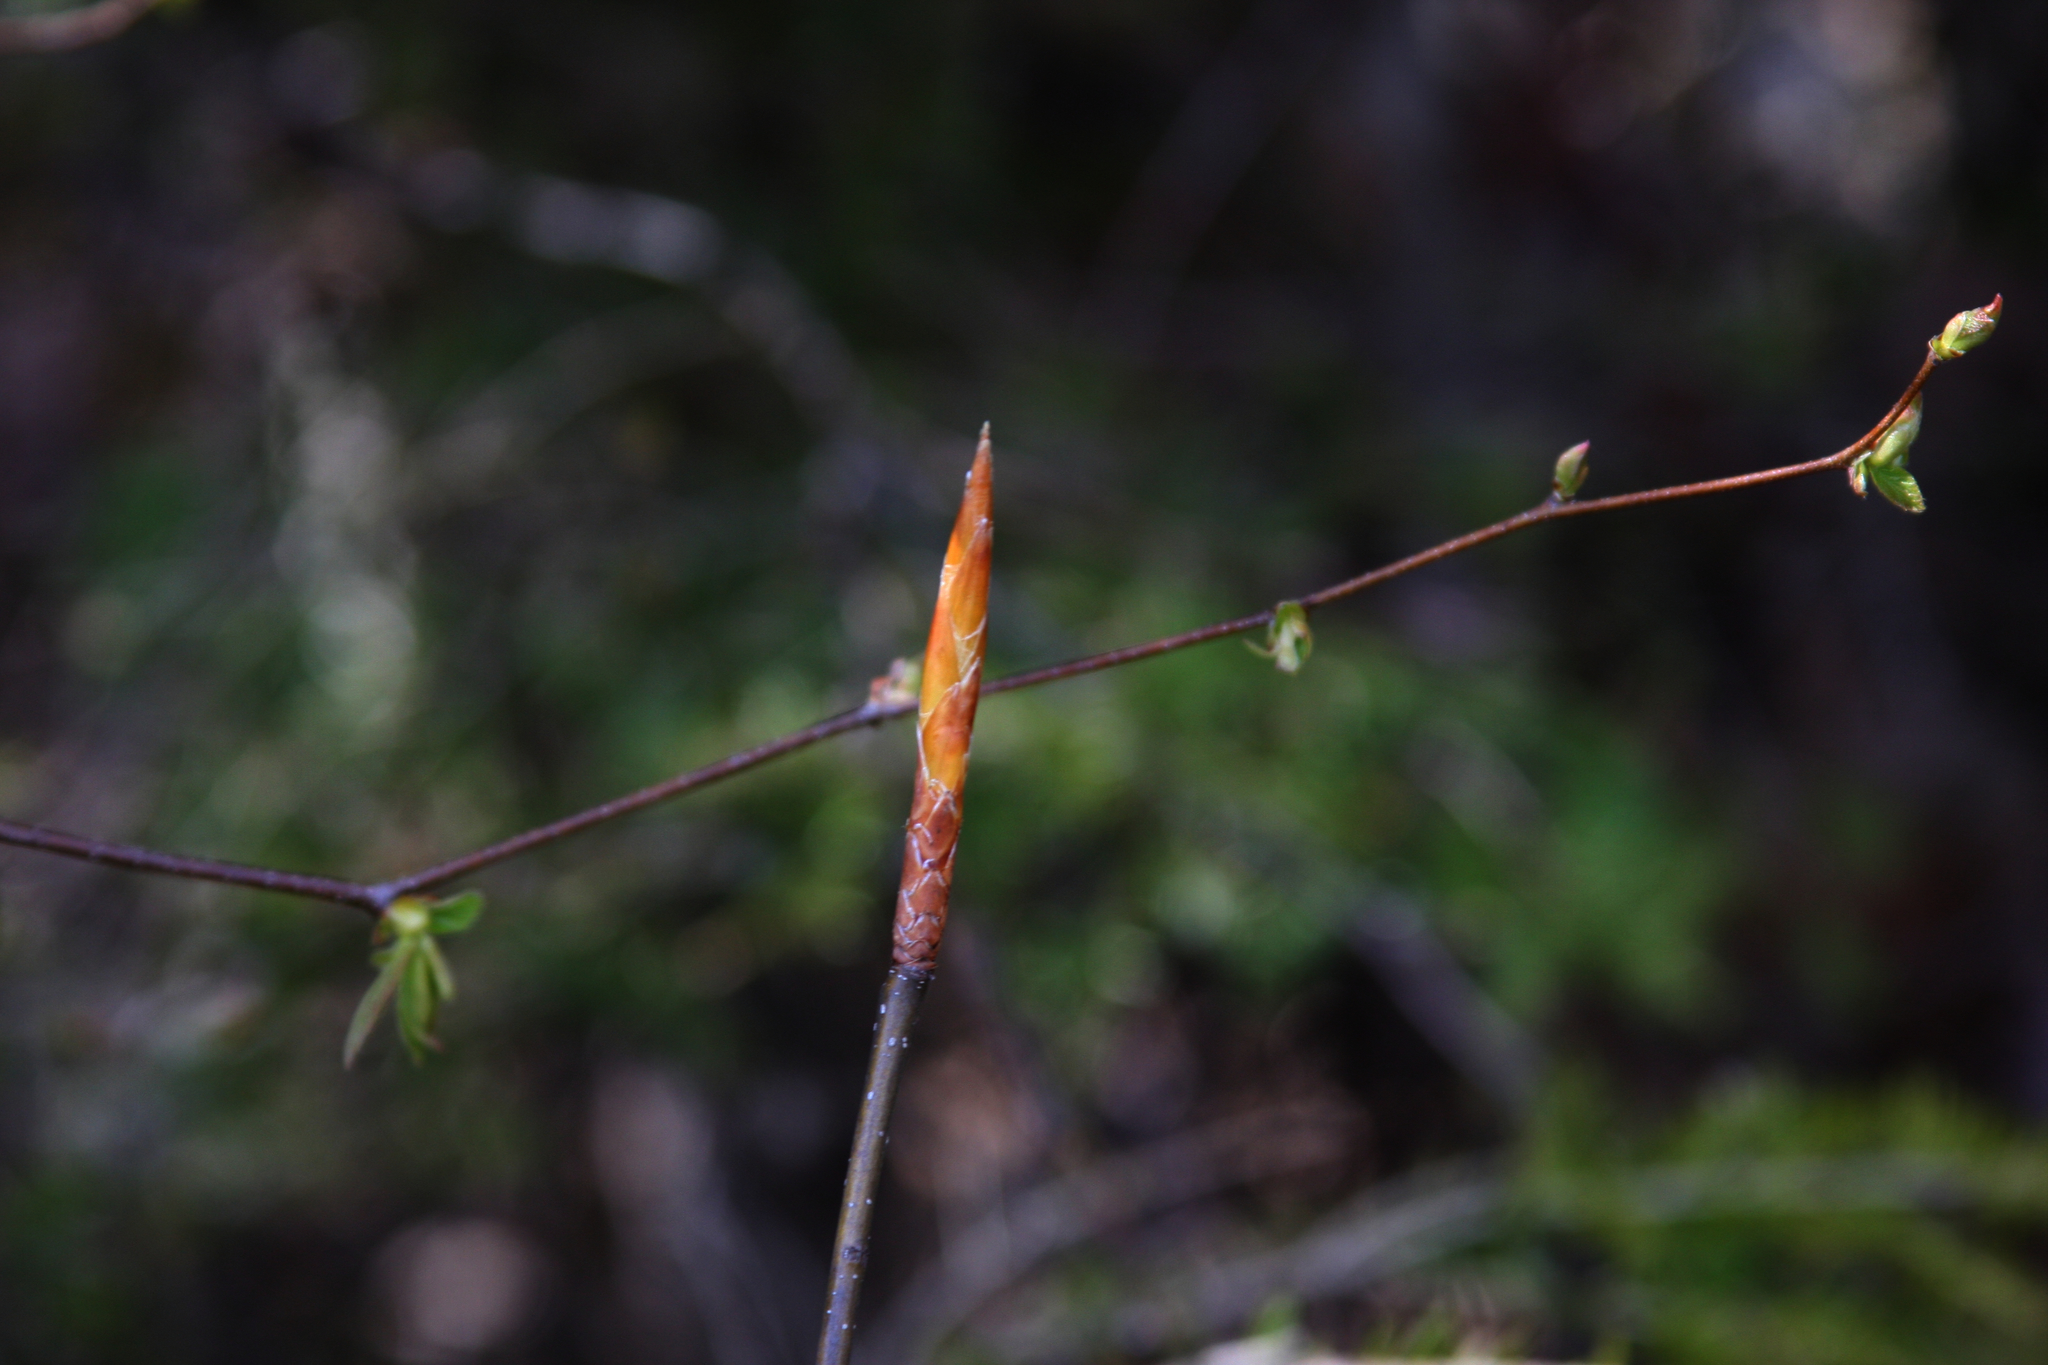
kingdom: Plantae
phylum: Tracheophyta
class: Magnoliopsida
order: Fagales
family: Fagaceae
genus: Fagus
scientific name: Fagus grandifolia
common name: American beech
